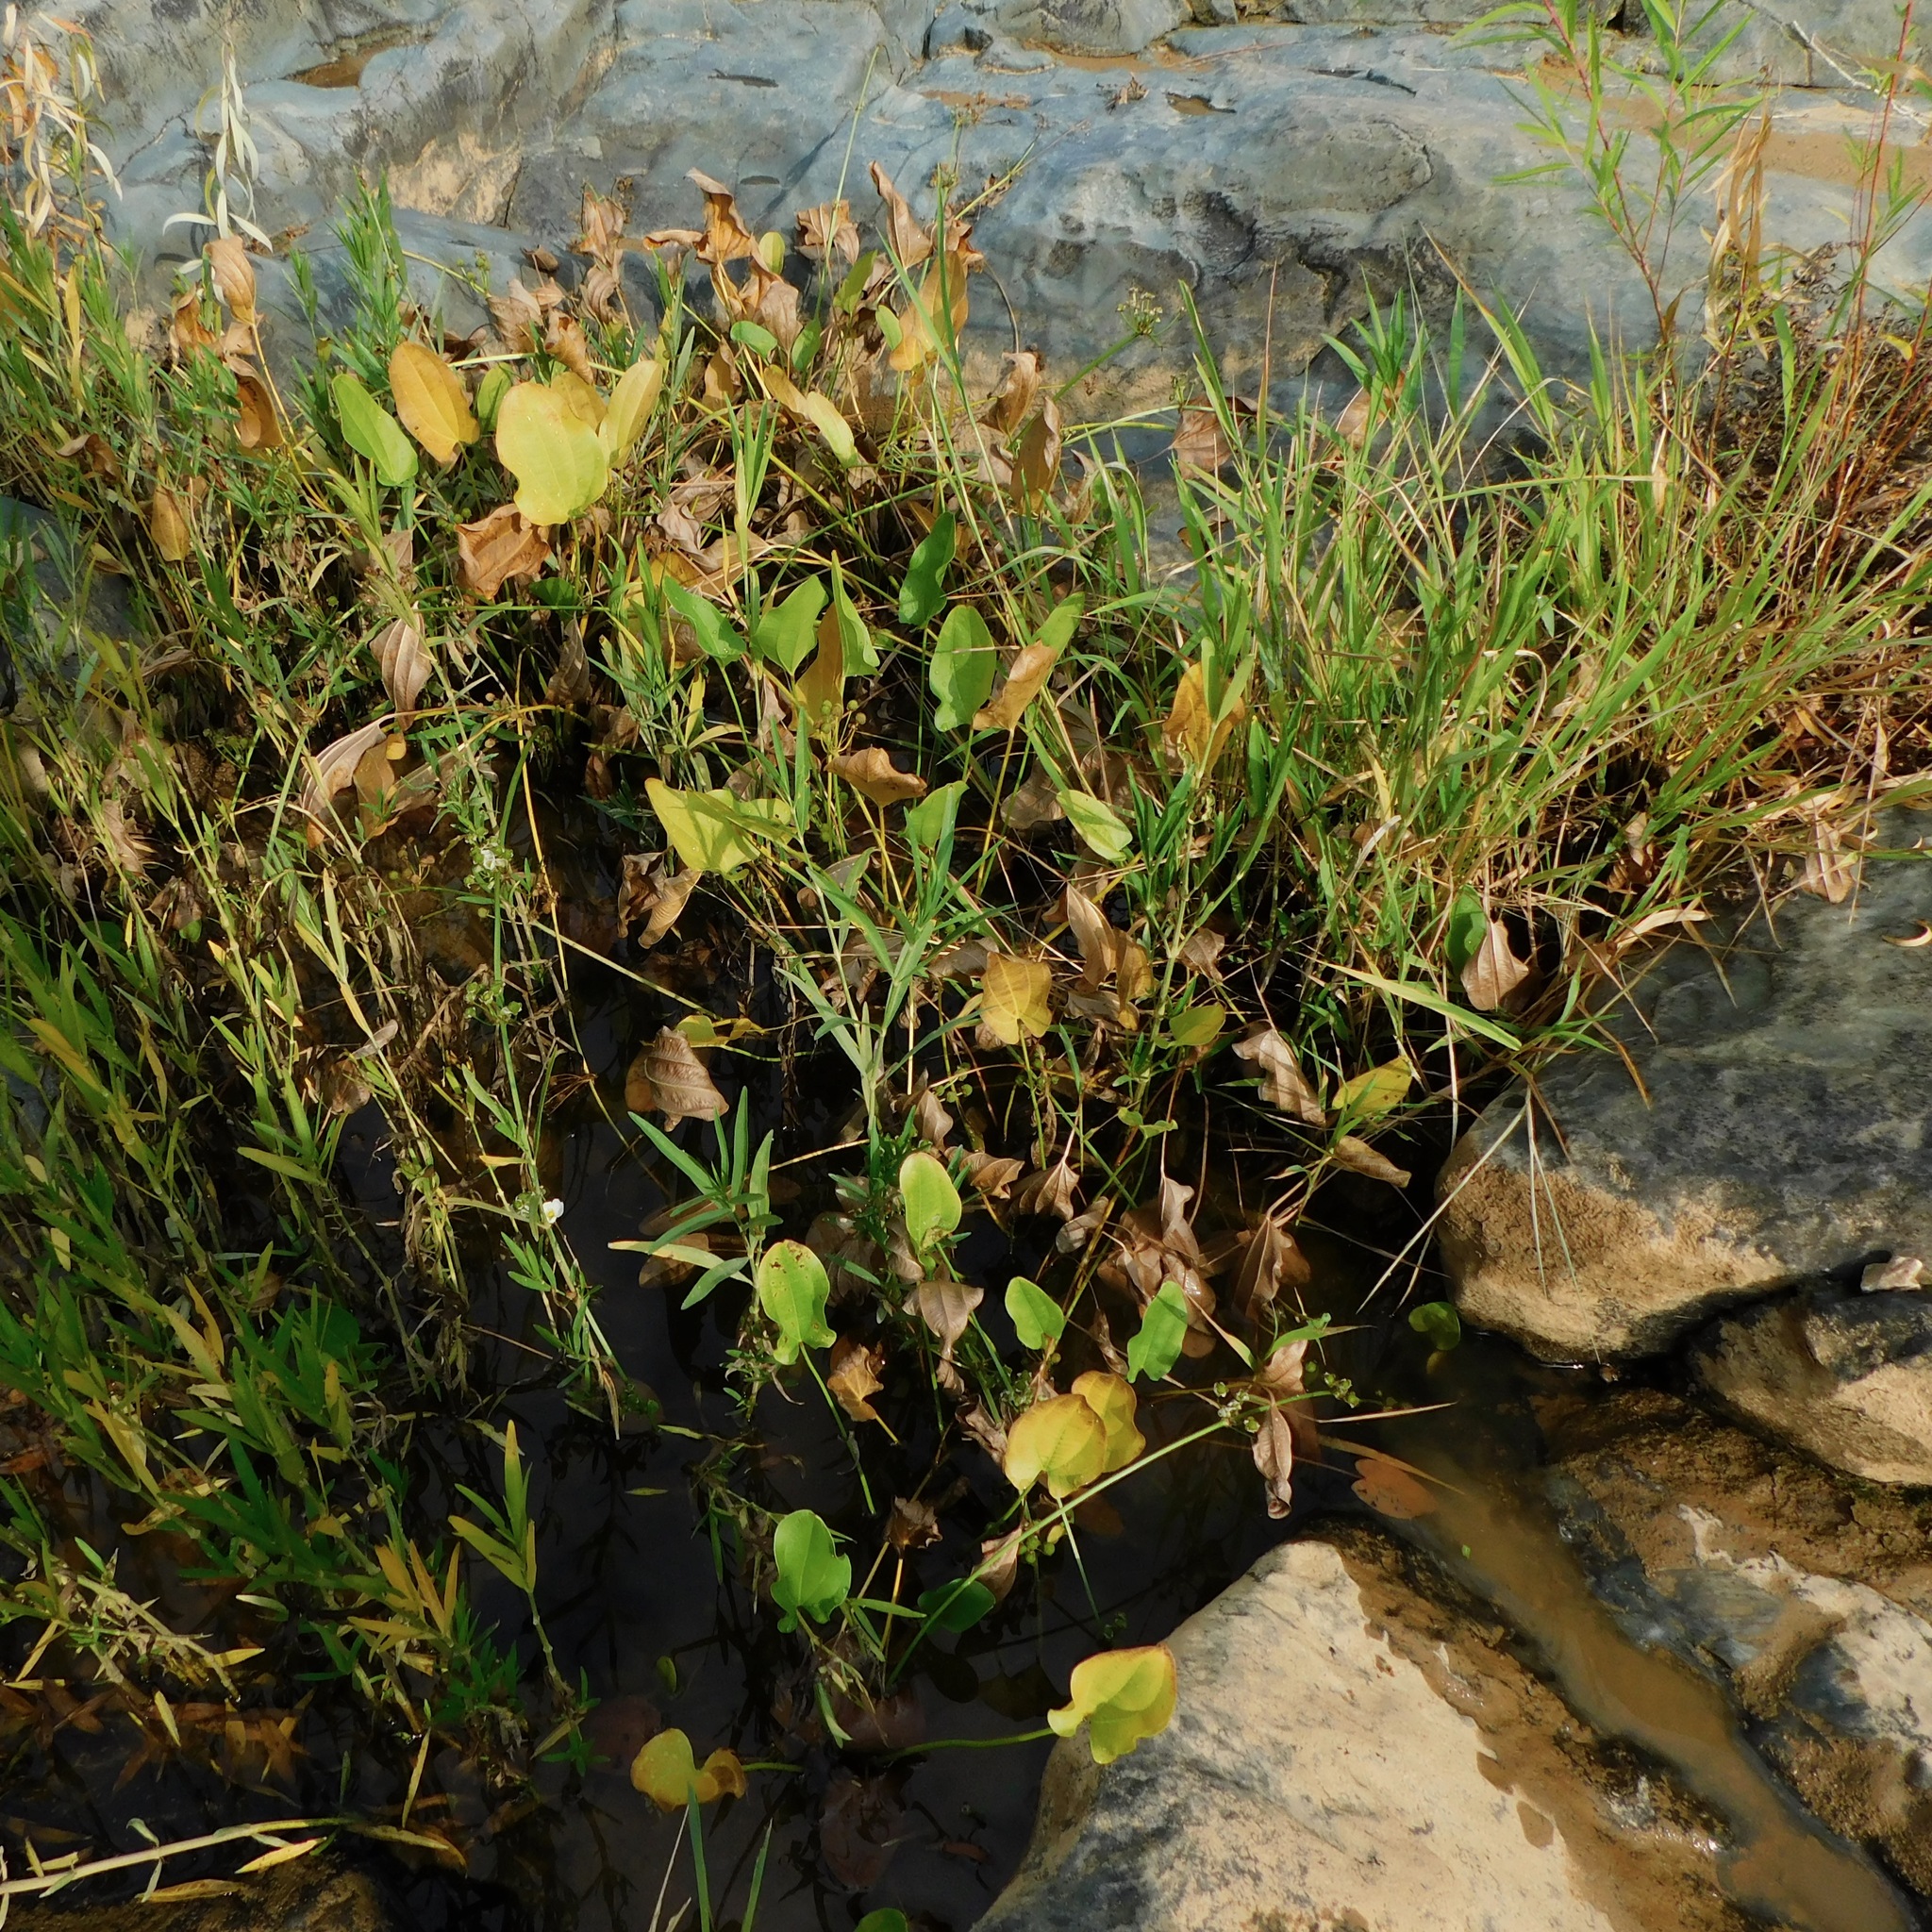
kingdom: Plantae
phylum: Tracheophyta
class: Liliopsida
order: Alismatales
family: Alismataceae
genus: Aquarius
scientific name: Aquarius cordifolius
